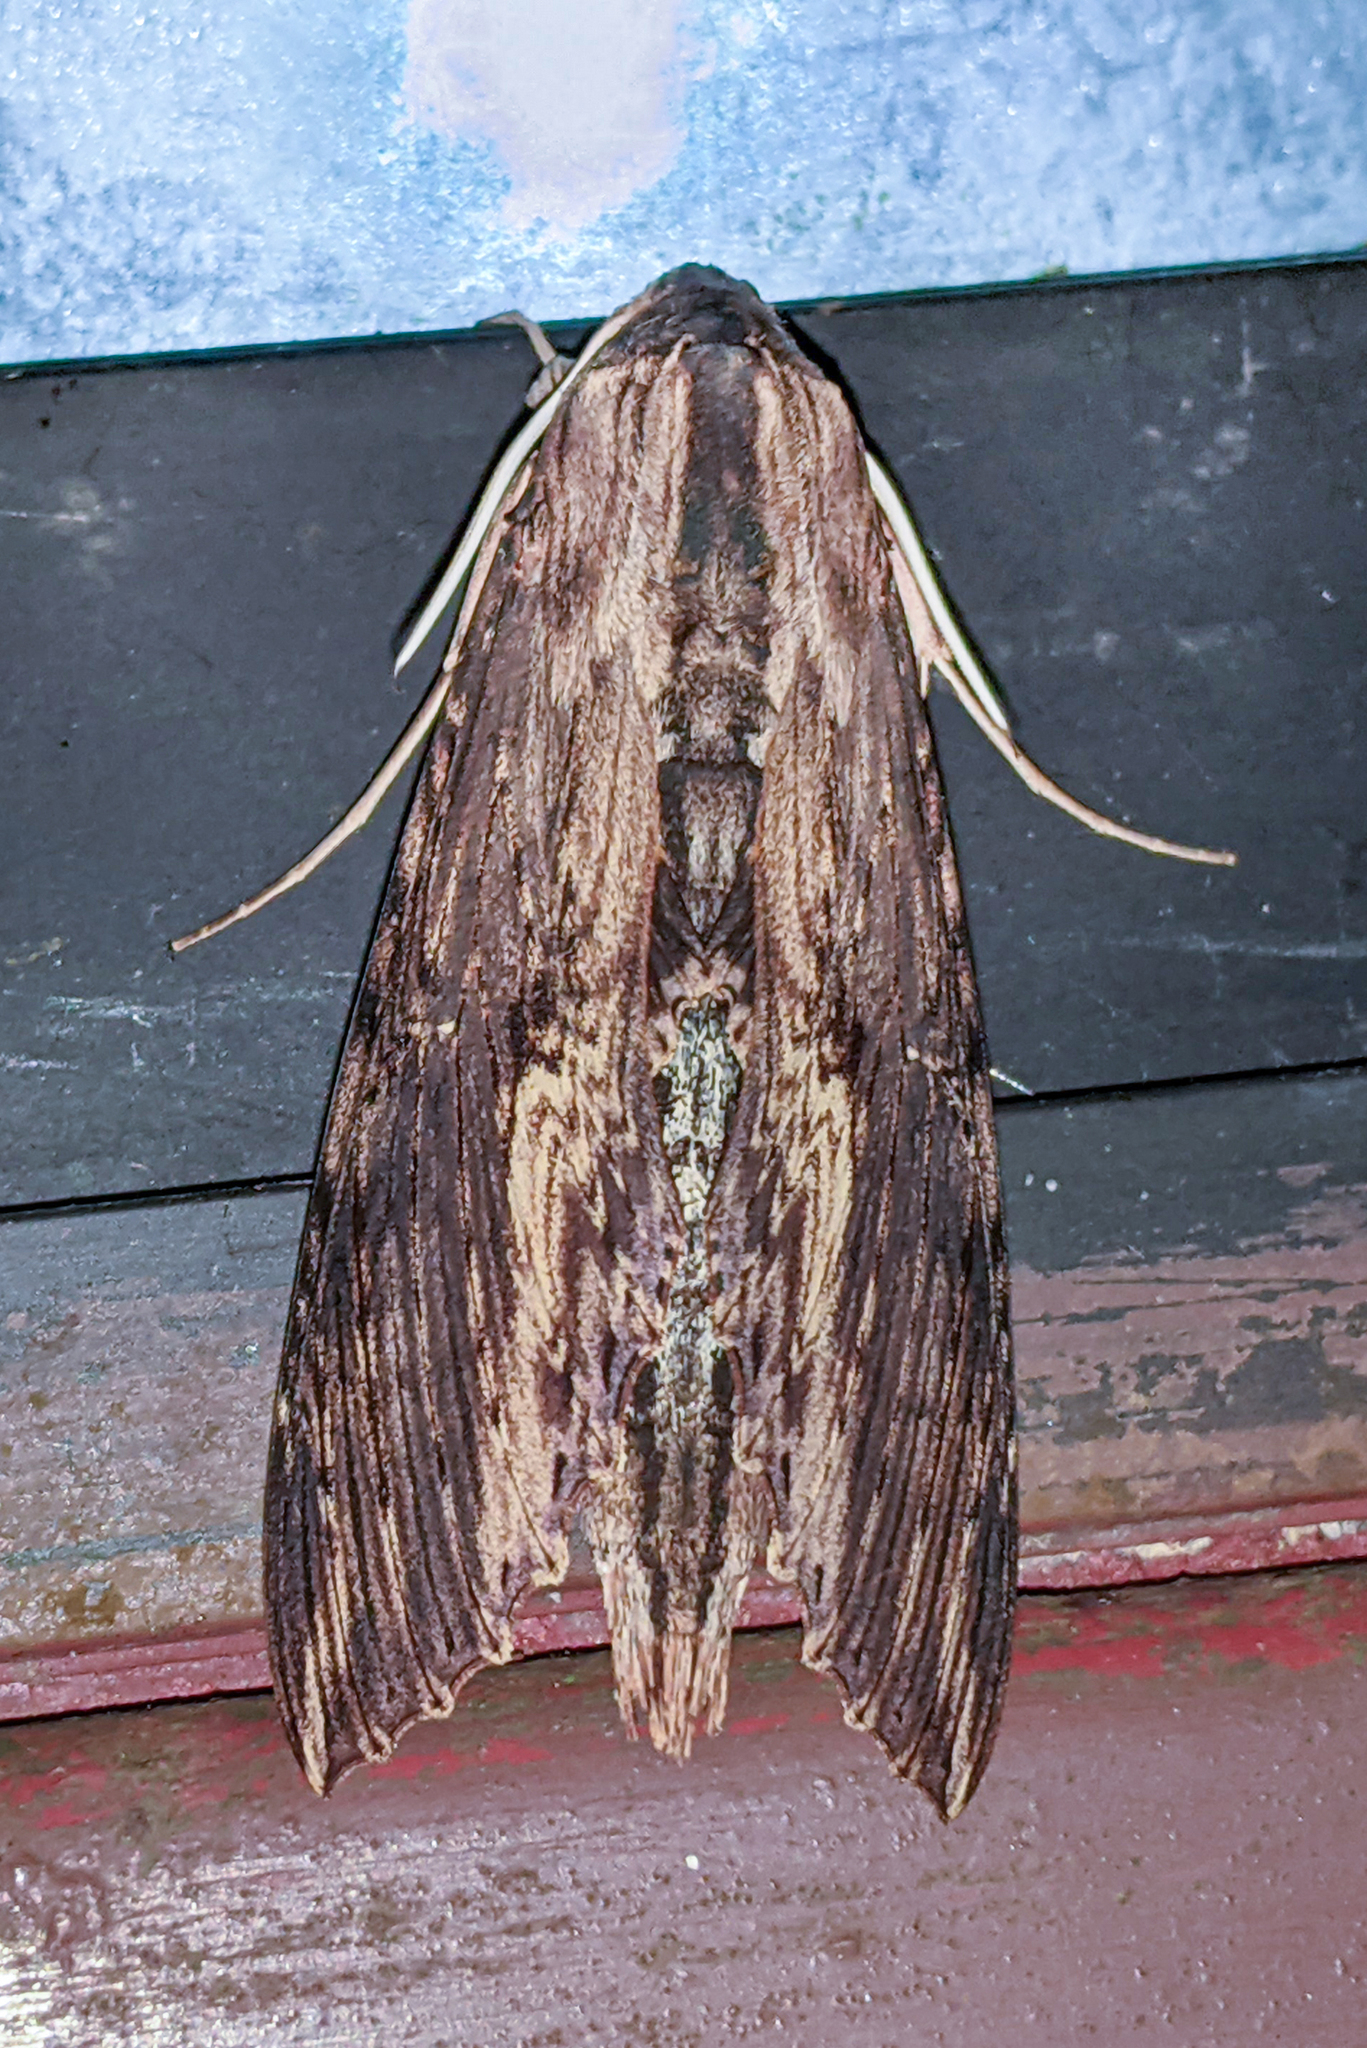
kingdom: Animalia
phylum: Arthropoda
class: Insecta
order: Lepidoptera
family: Sphingidae
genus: Erinnyis
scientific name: Erinnyis alope
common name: Alope sphinx
